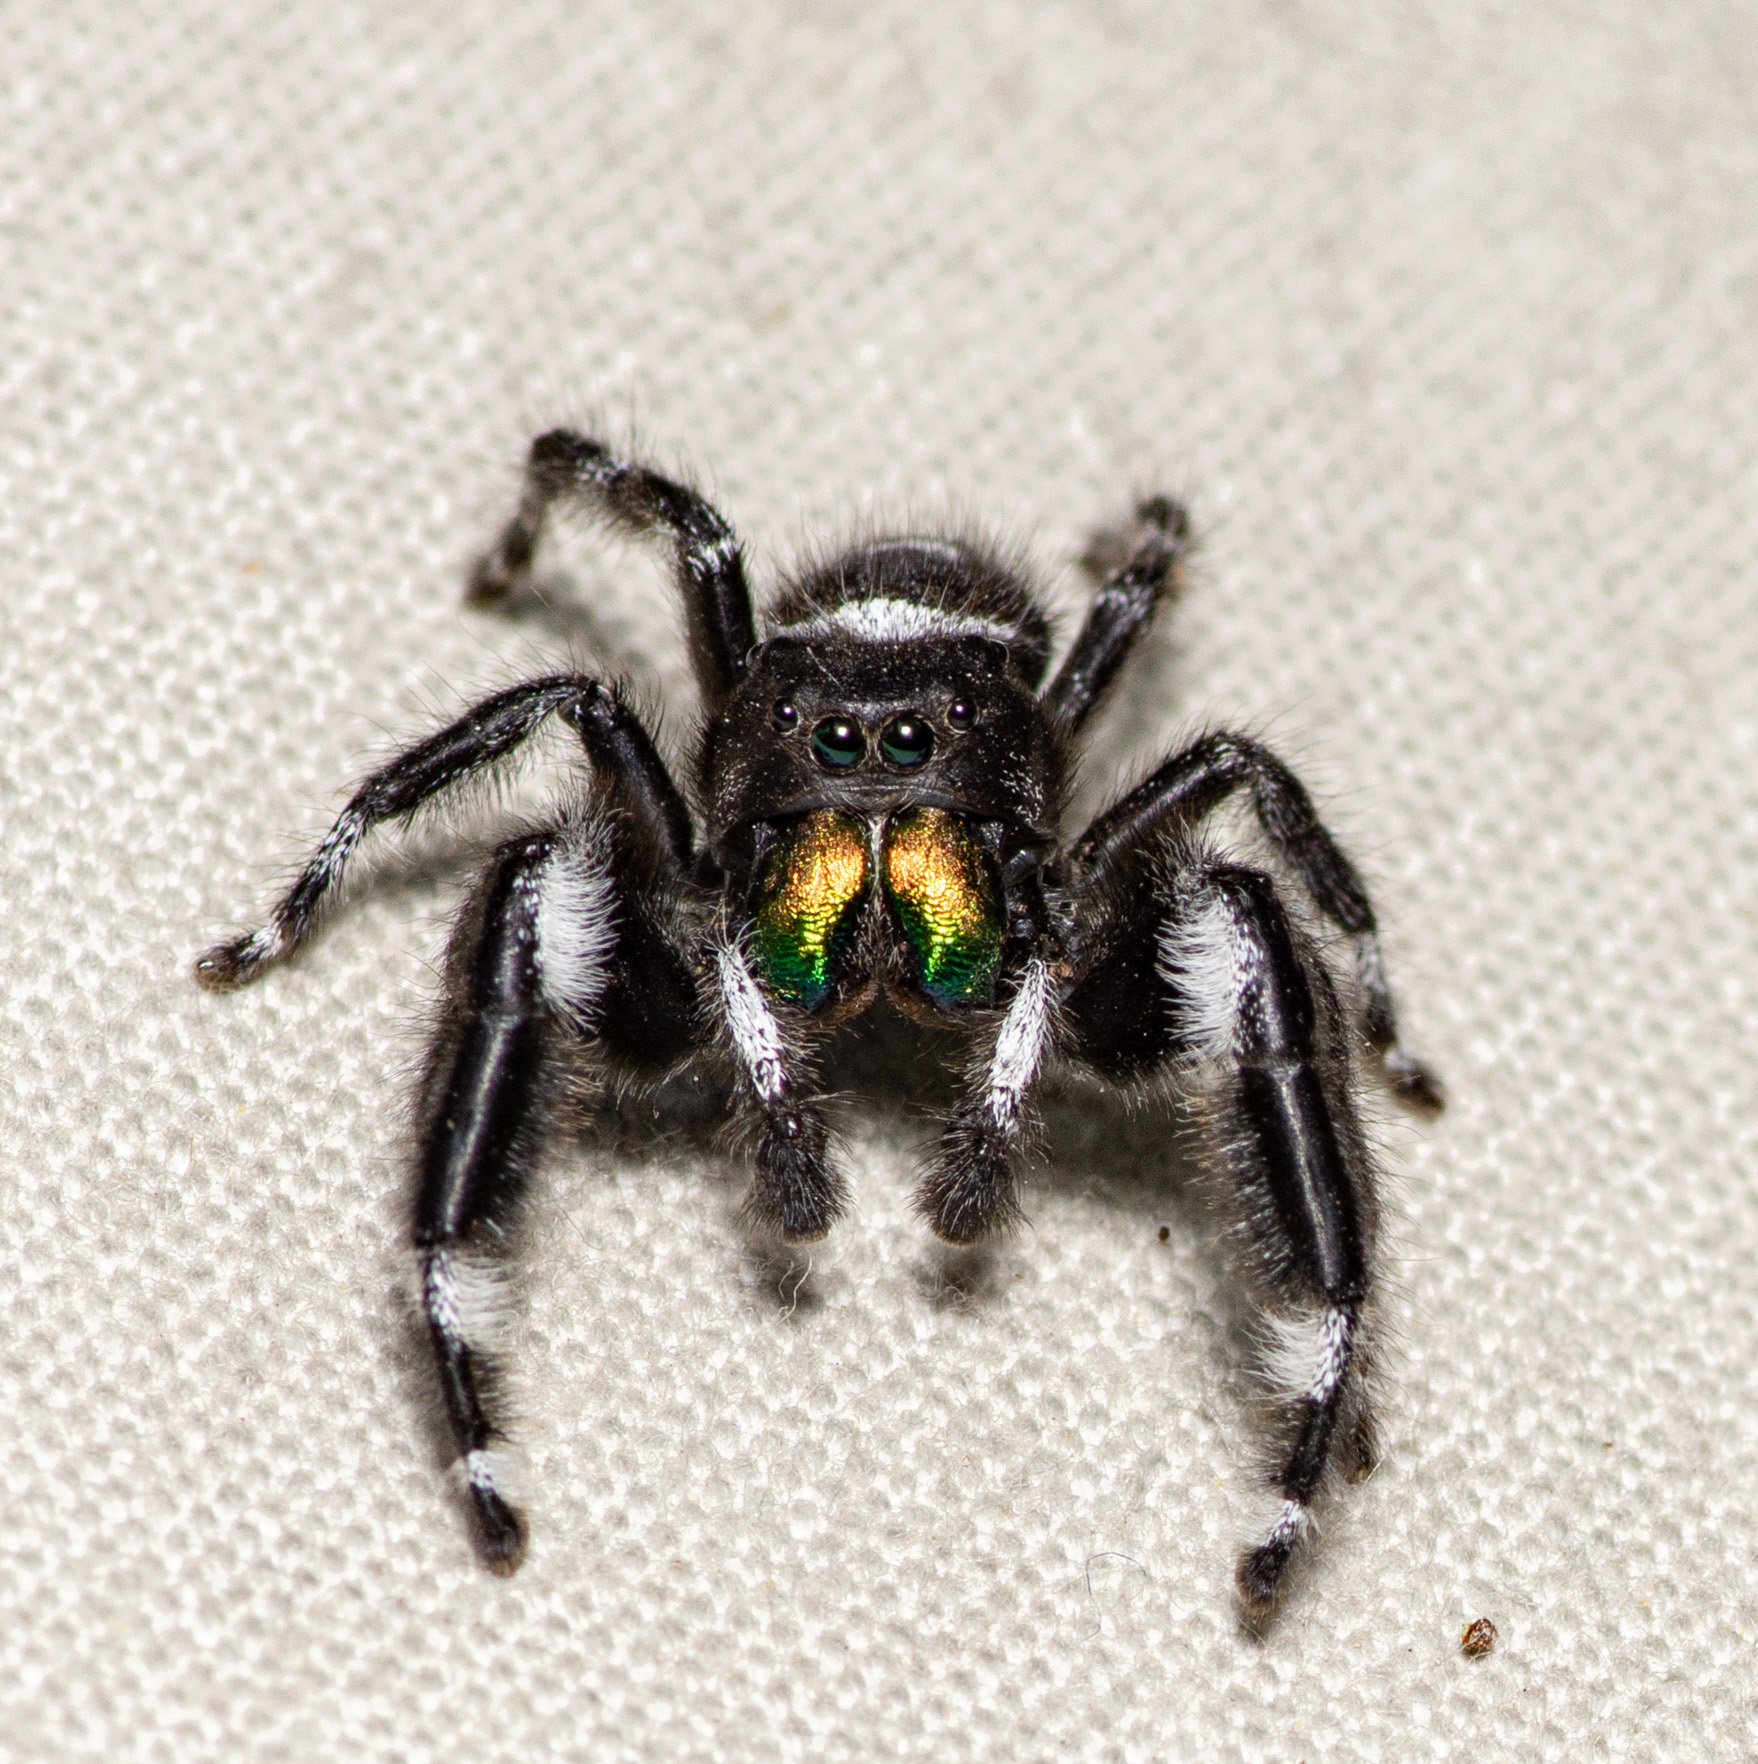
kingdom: Animalia
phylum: Arthropoda
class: Arachnida
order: Araneae
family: Salticidae
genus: Phidippus
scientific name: Phidippus audax
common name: Bold jumper
